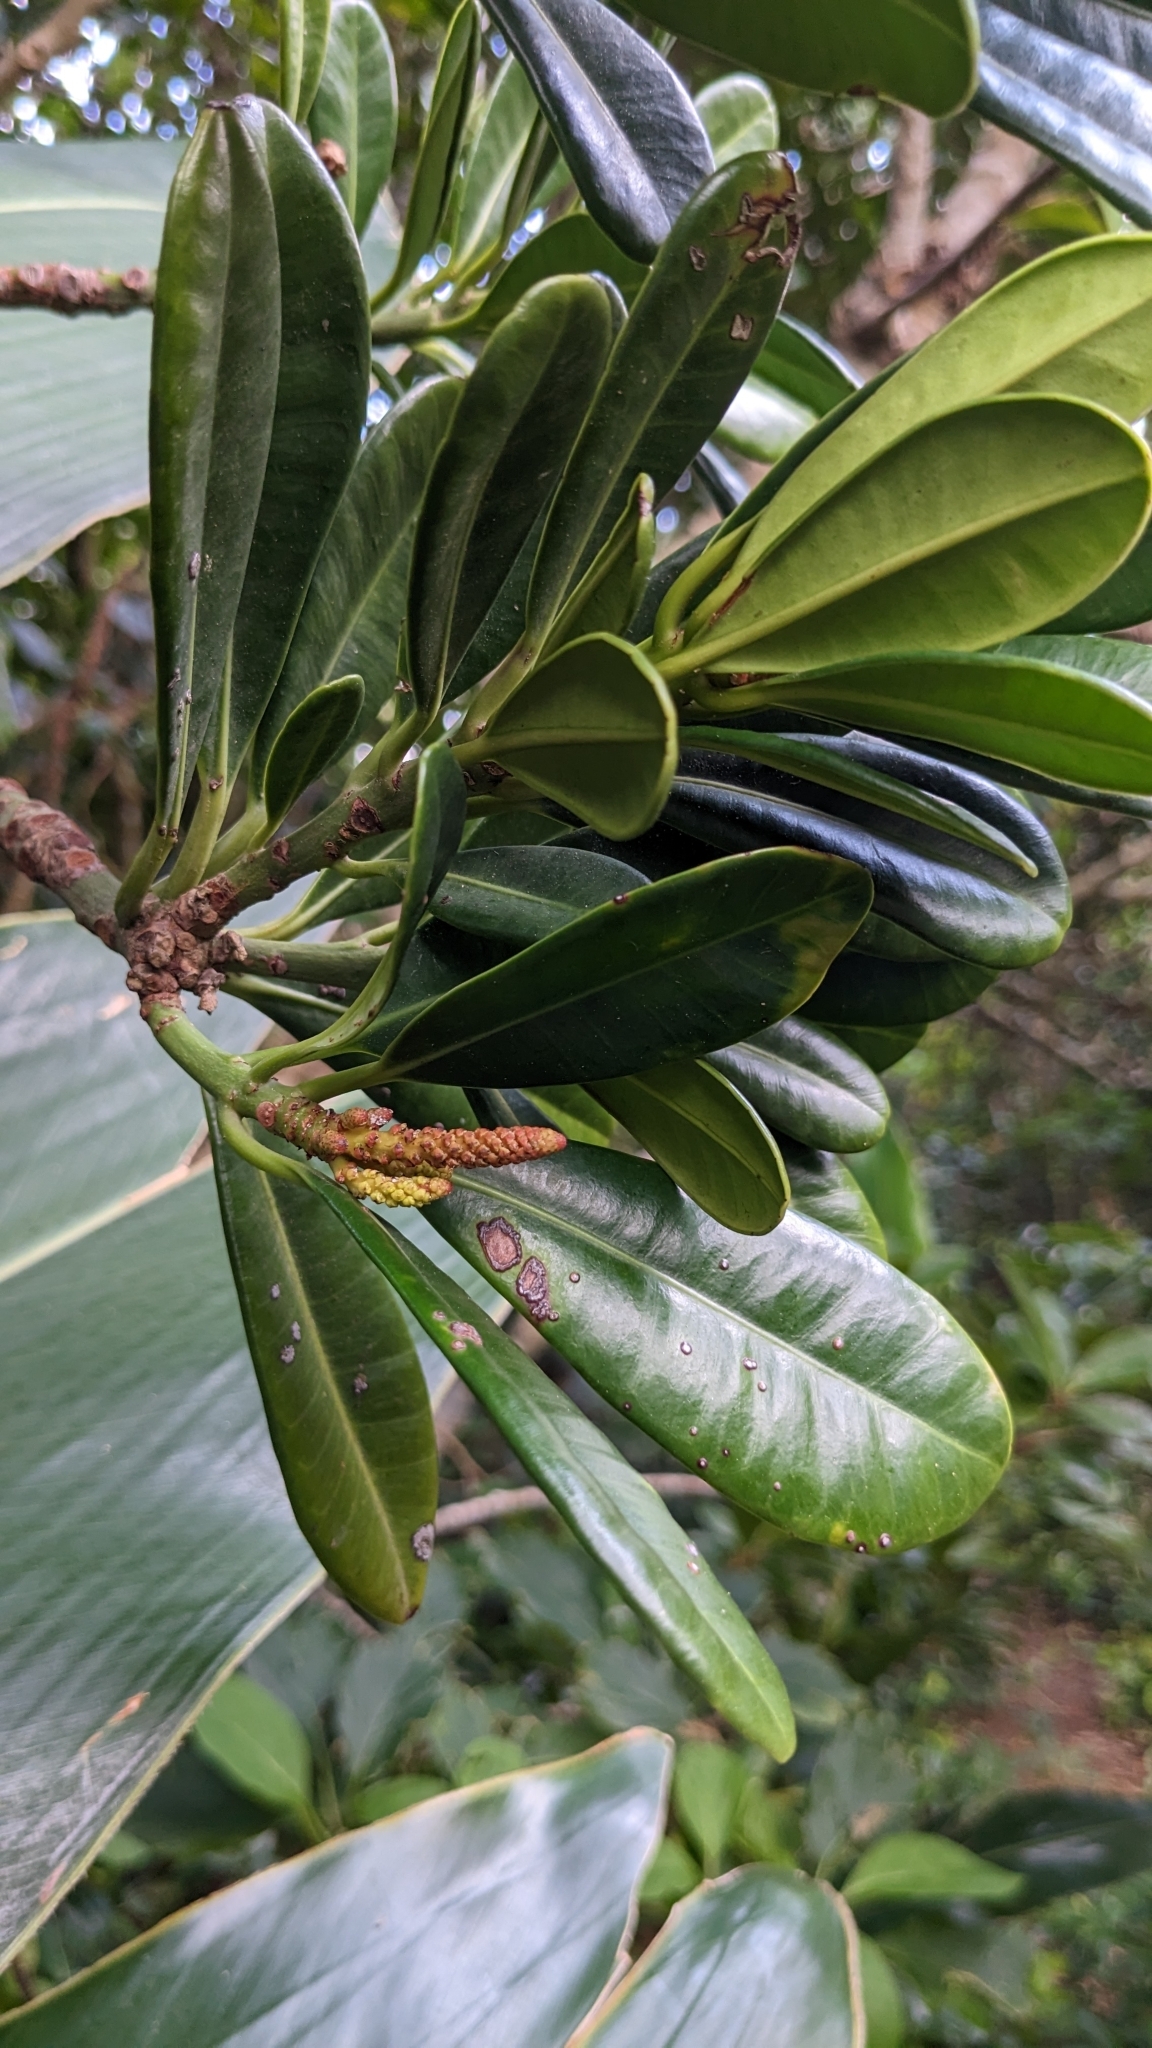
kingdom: Plantae
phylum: Tracheophyta
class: Magnoliopsida
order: Malpighiales
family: Euphorbiaceae
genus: Excoecaria
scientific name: Excoecaria kawakamii
